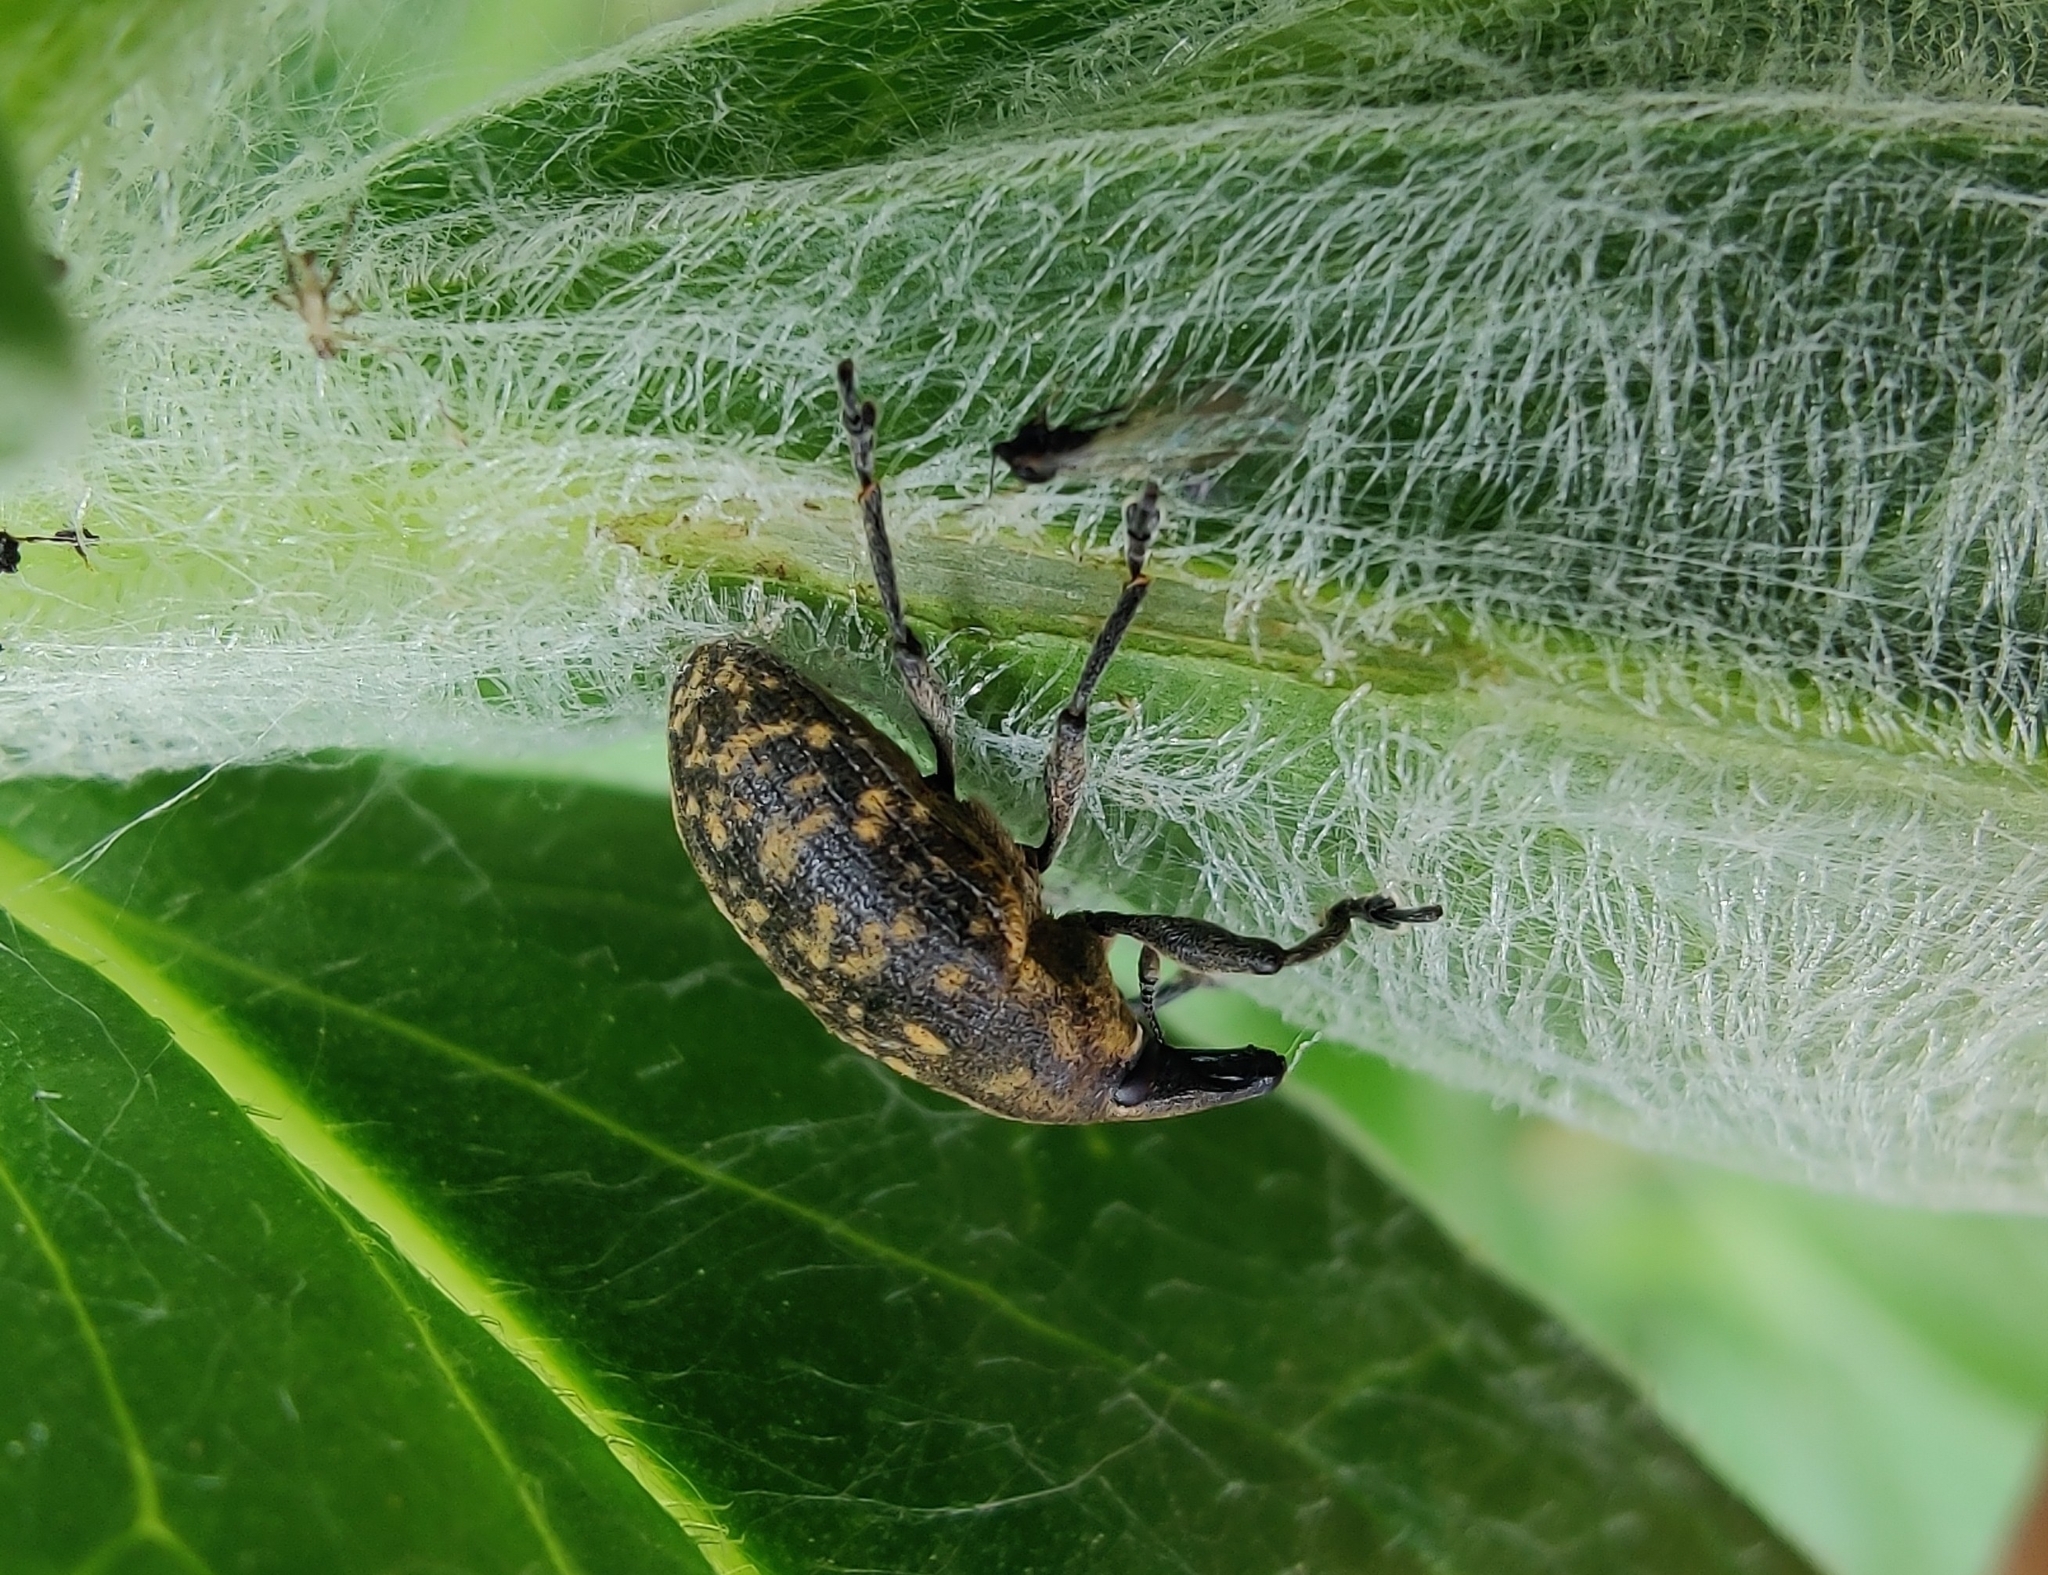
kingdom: Animalia
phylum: Arthropoda
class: Insecta
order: Coleoptera
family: Curculionidae
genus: Larinus
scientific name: Larinus turbinatus
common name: Weevil
